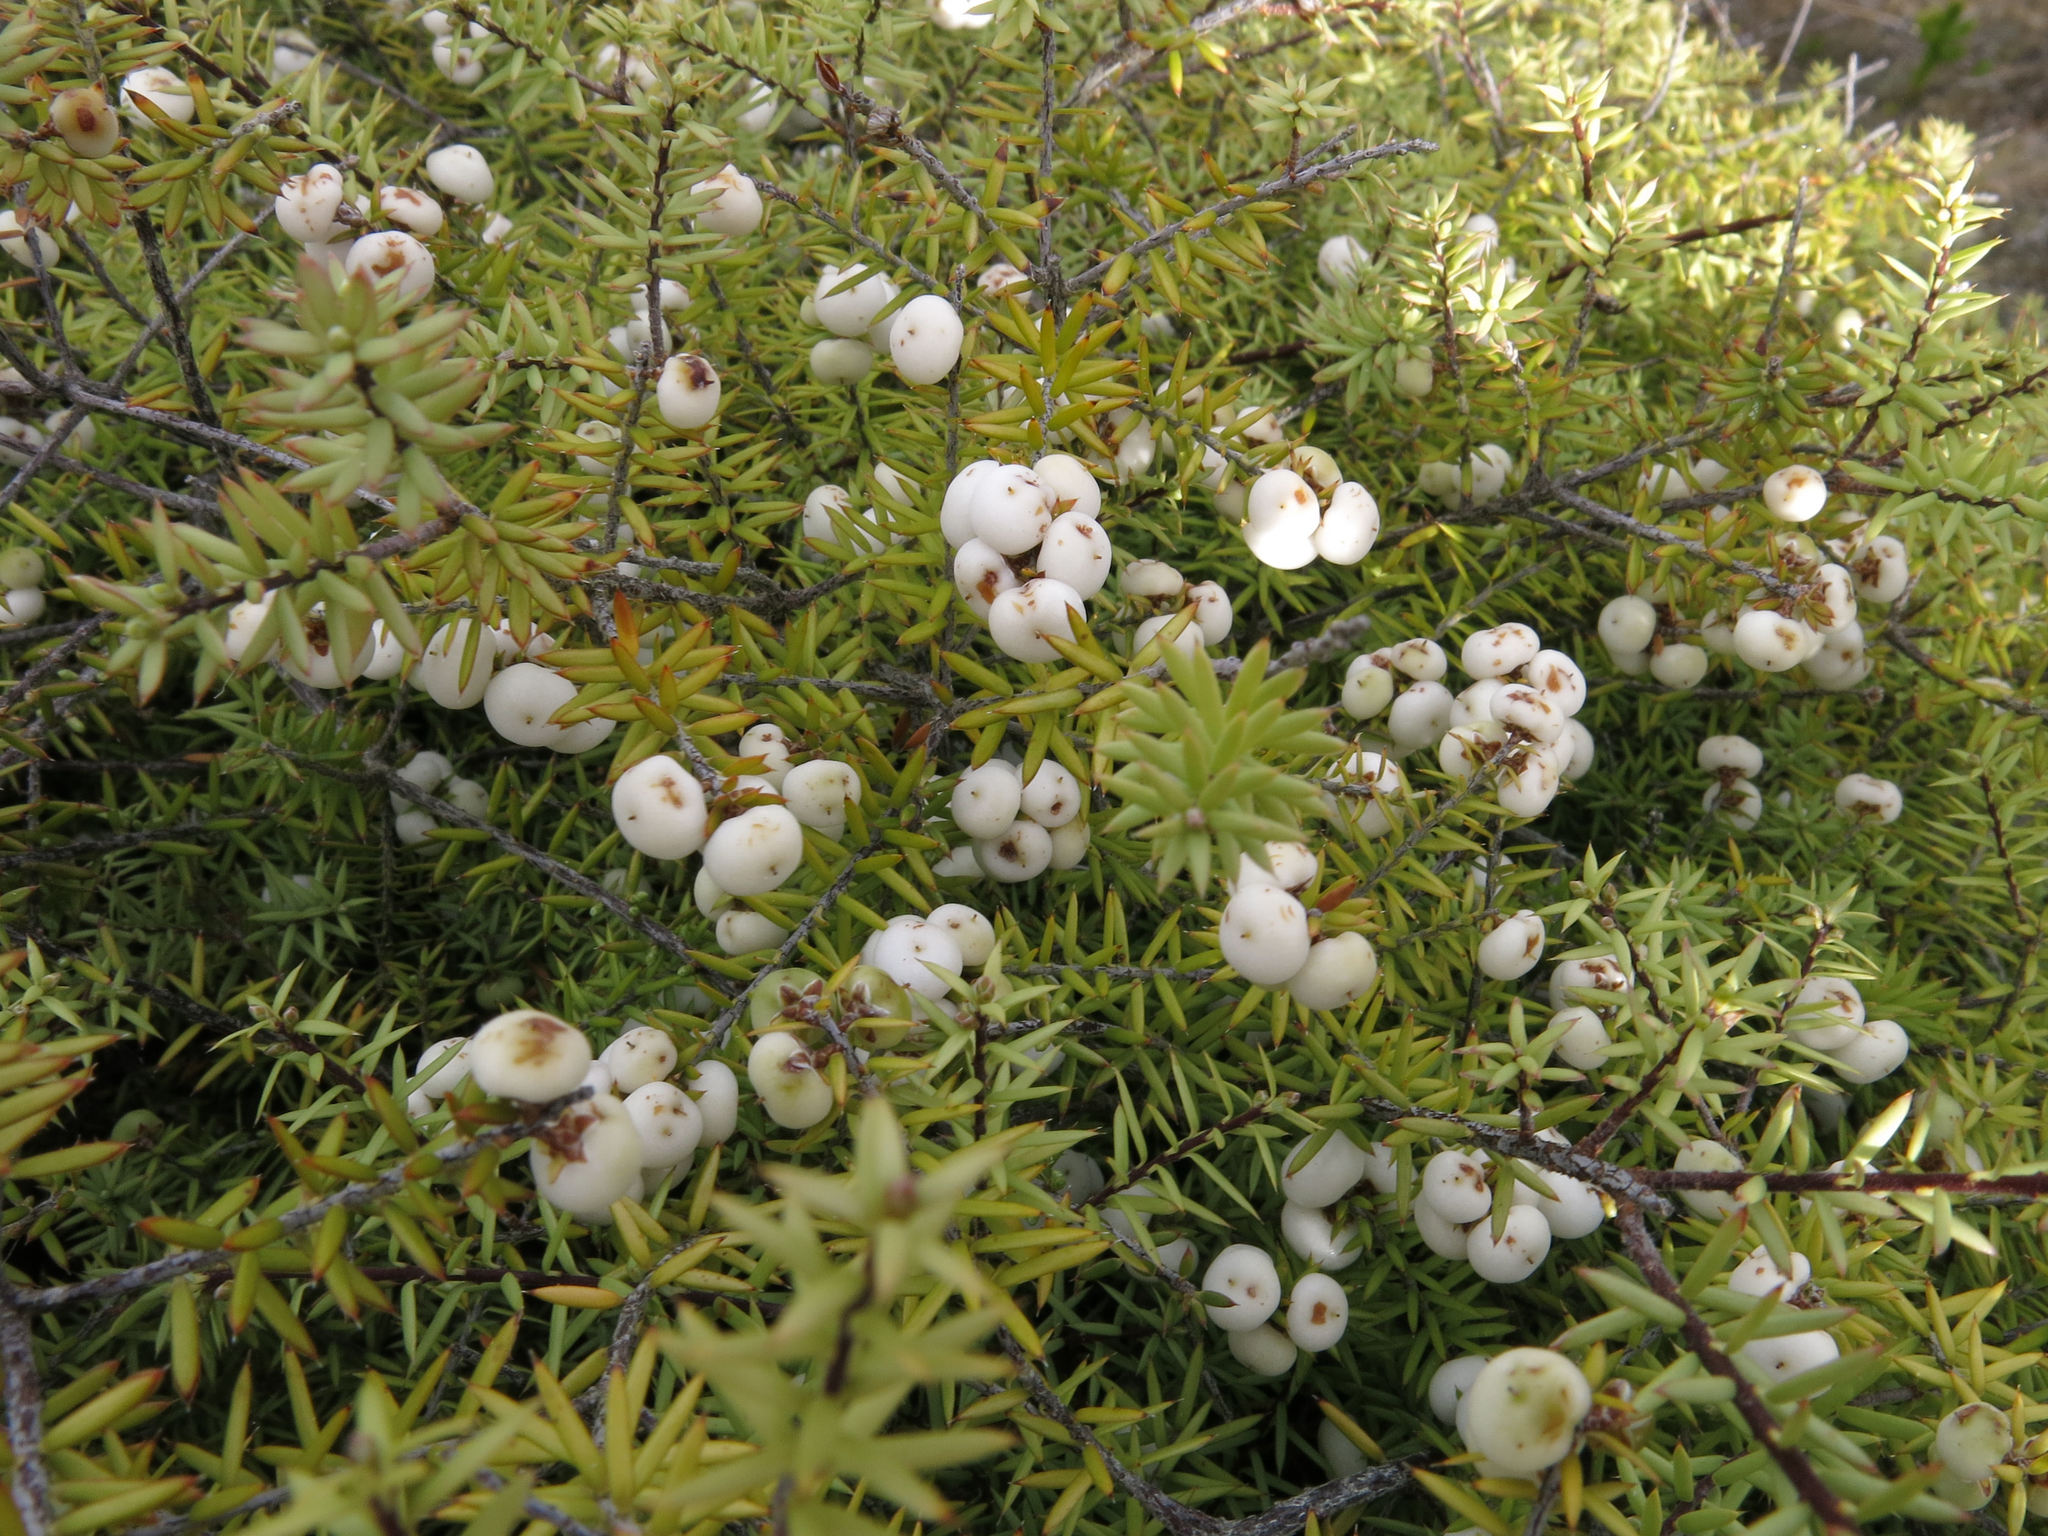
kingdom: Plantae
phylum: Tracheophyta
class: Magnoliopsida
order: Ericales
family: Ericaceae
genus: Leptecophylla
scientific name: Leptecophylla juniperina
